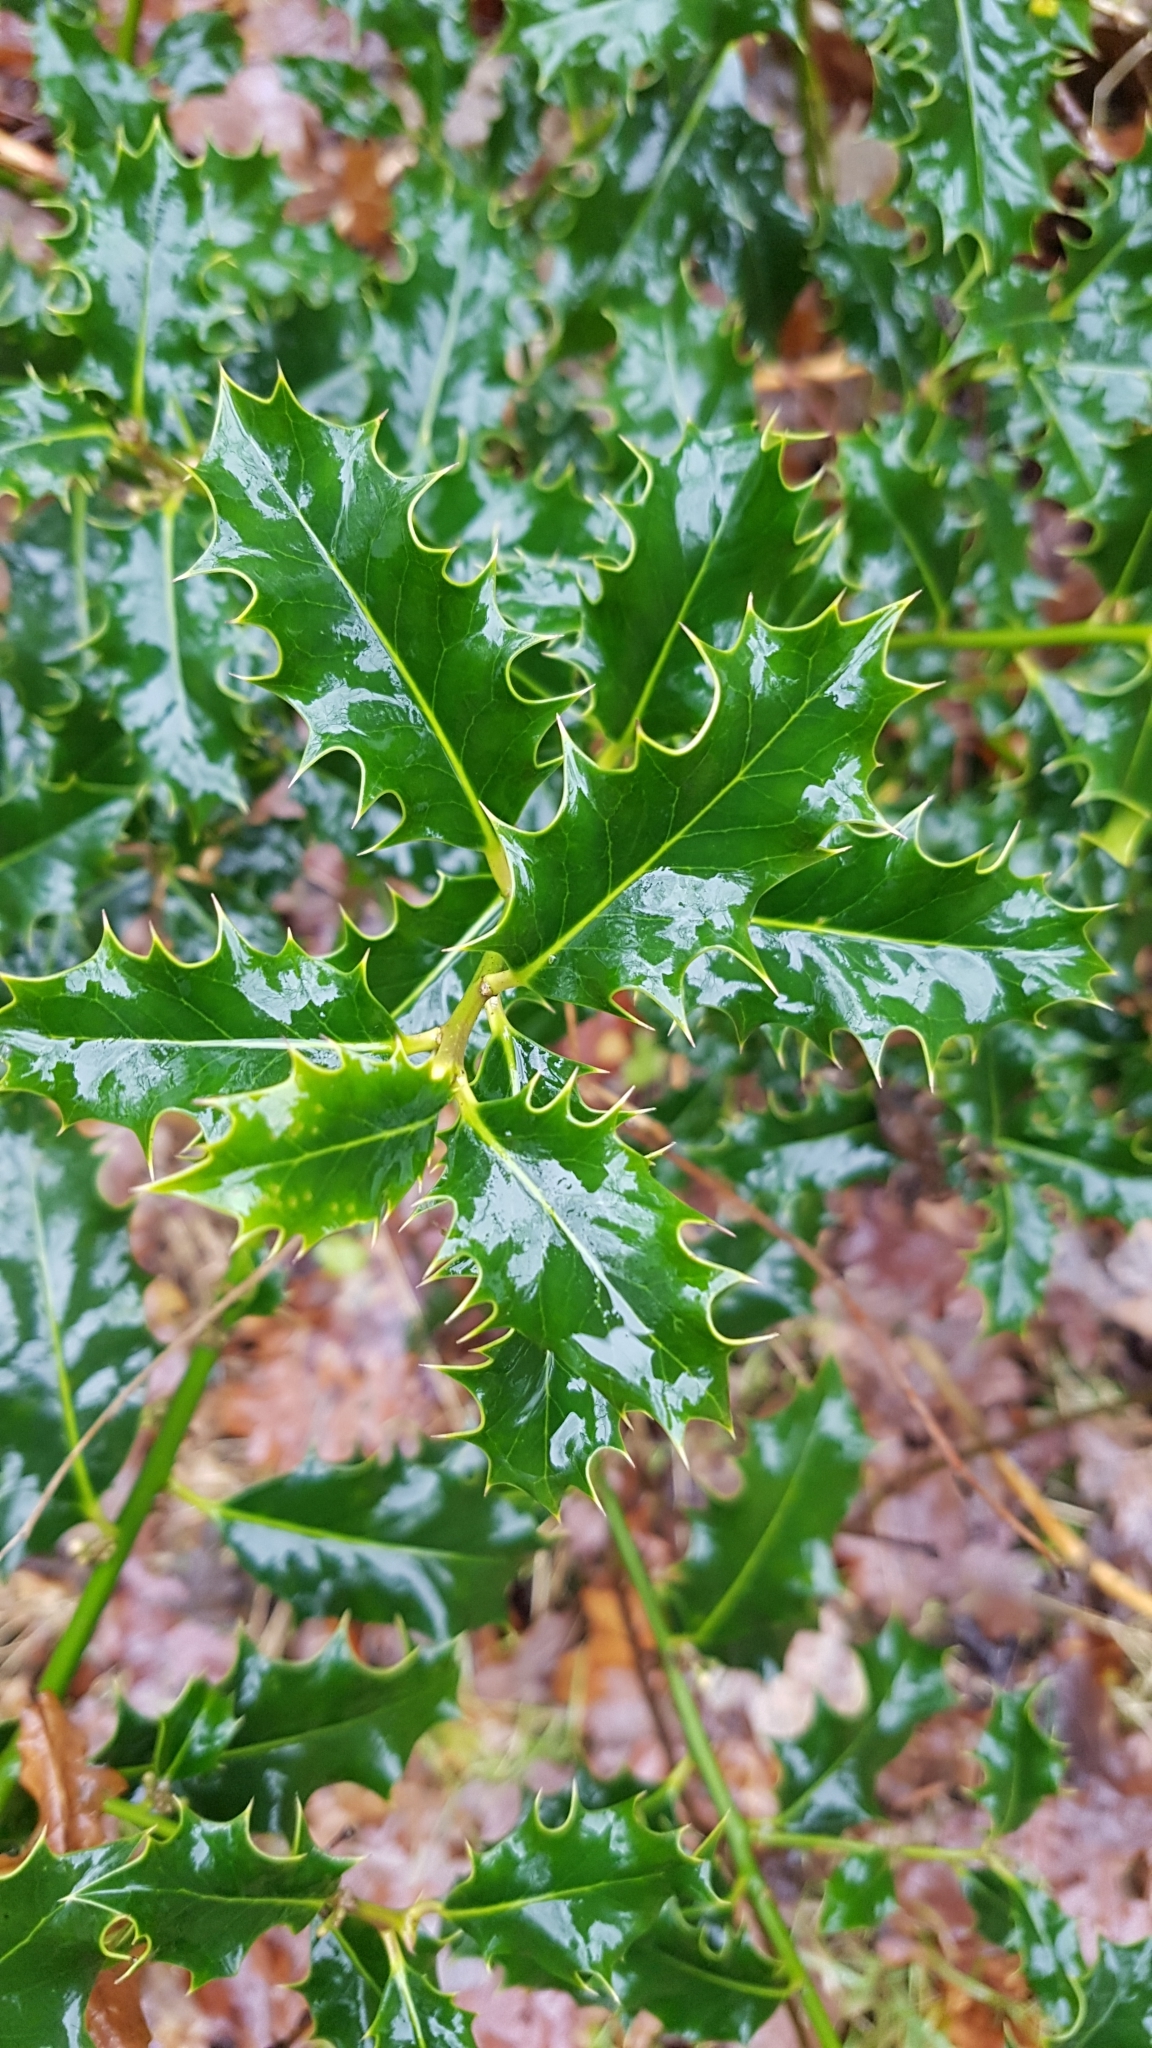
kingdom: Plantae
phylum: Tracheophyta
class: Magnoliopsida
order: Aquifoliales
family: Aquifoliaceae
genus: Ilex
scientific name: Ilex aquifolium
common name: English holly
